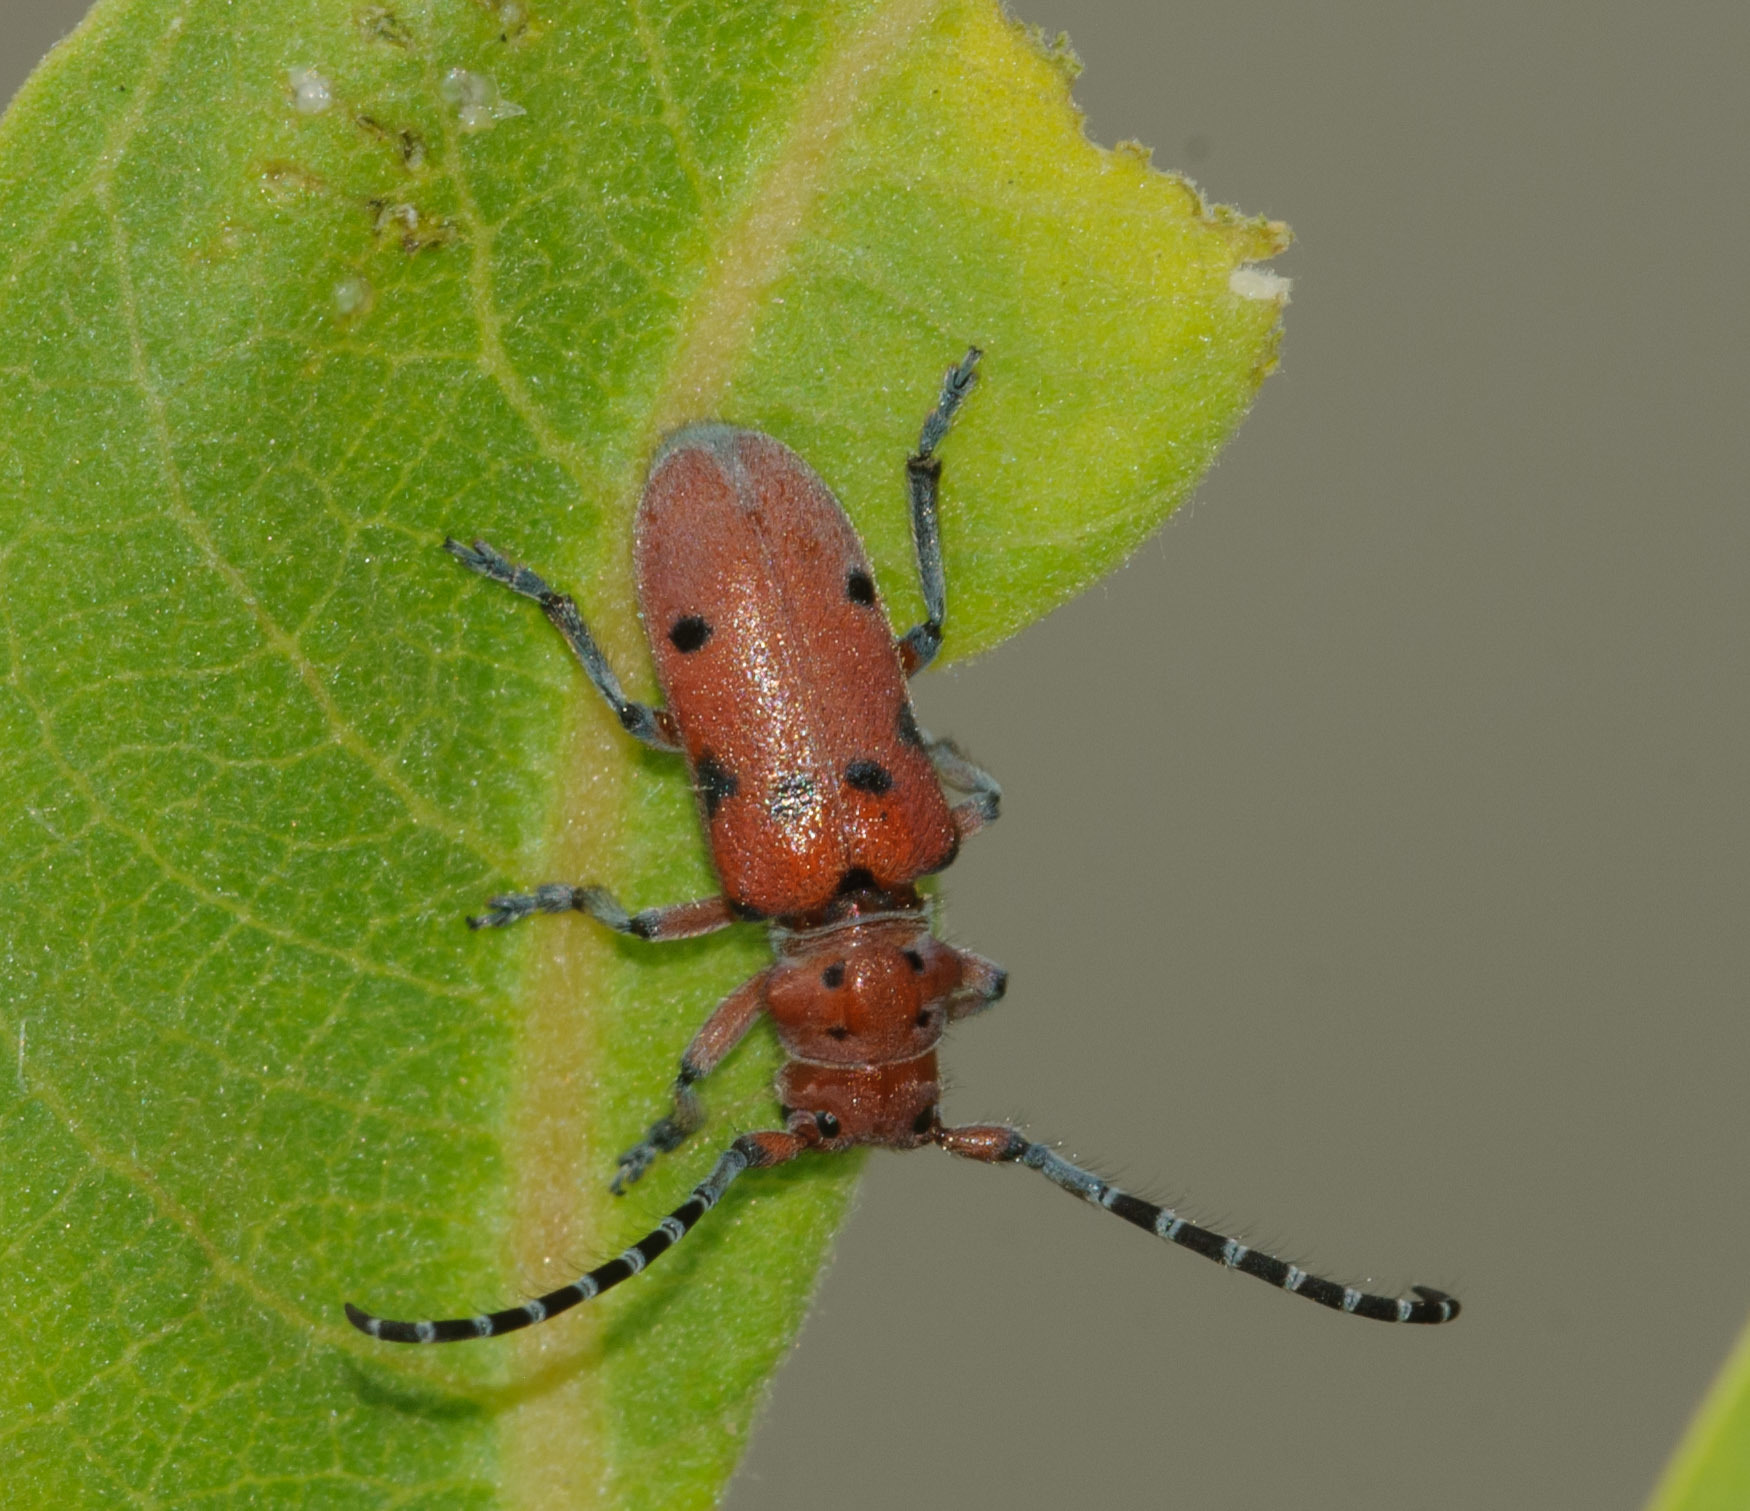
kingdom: Animalia
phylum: Arthropoda
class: Insecta
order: Coleoptera
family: Cerambycidae
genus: Tetraopes
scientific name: Tetraopes femoratus
